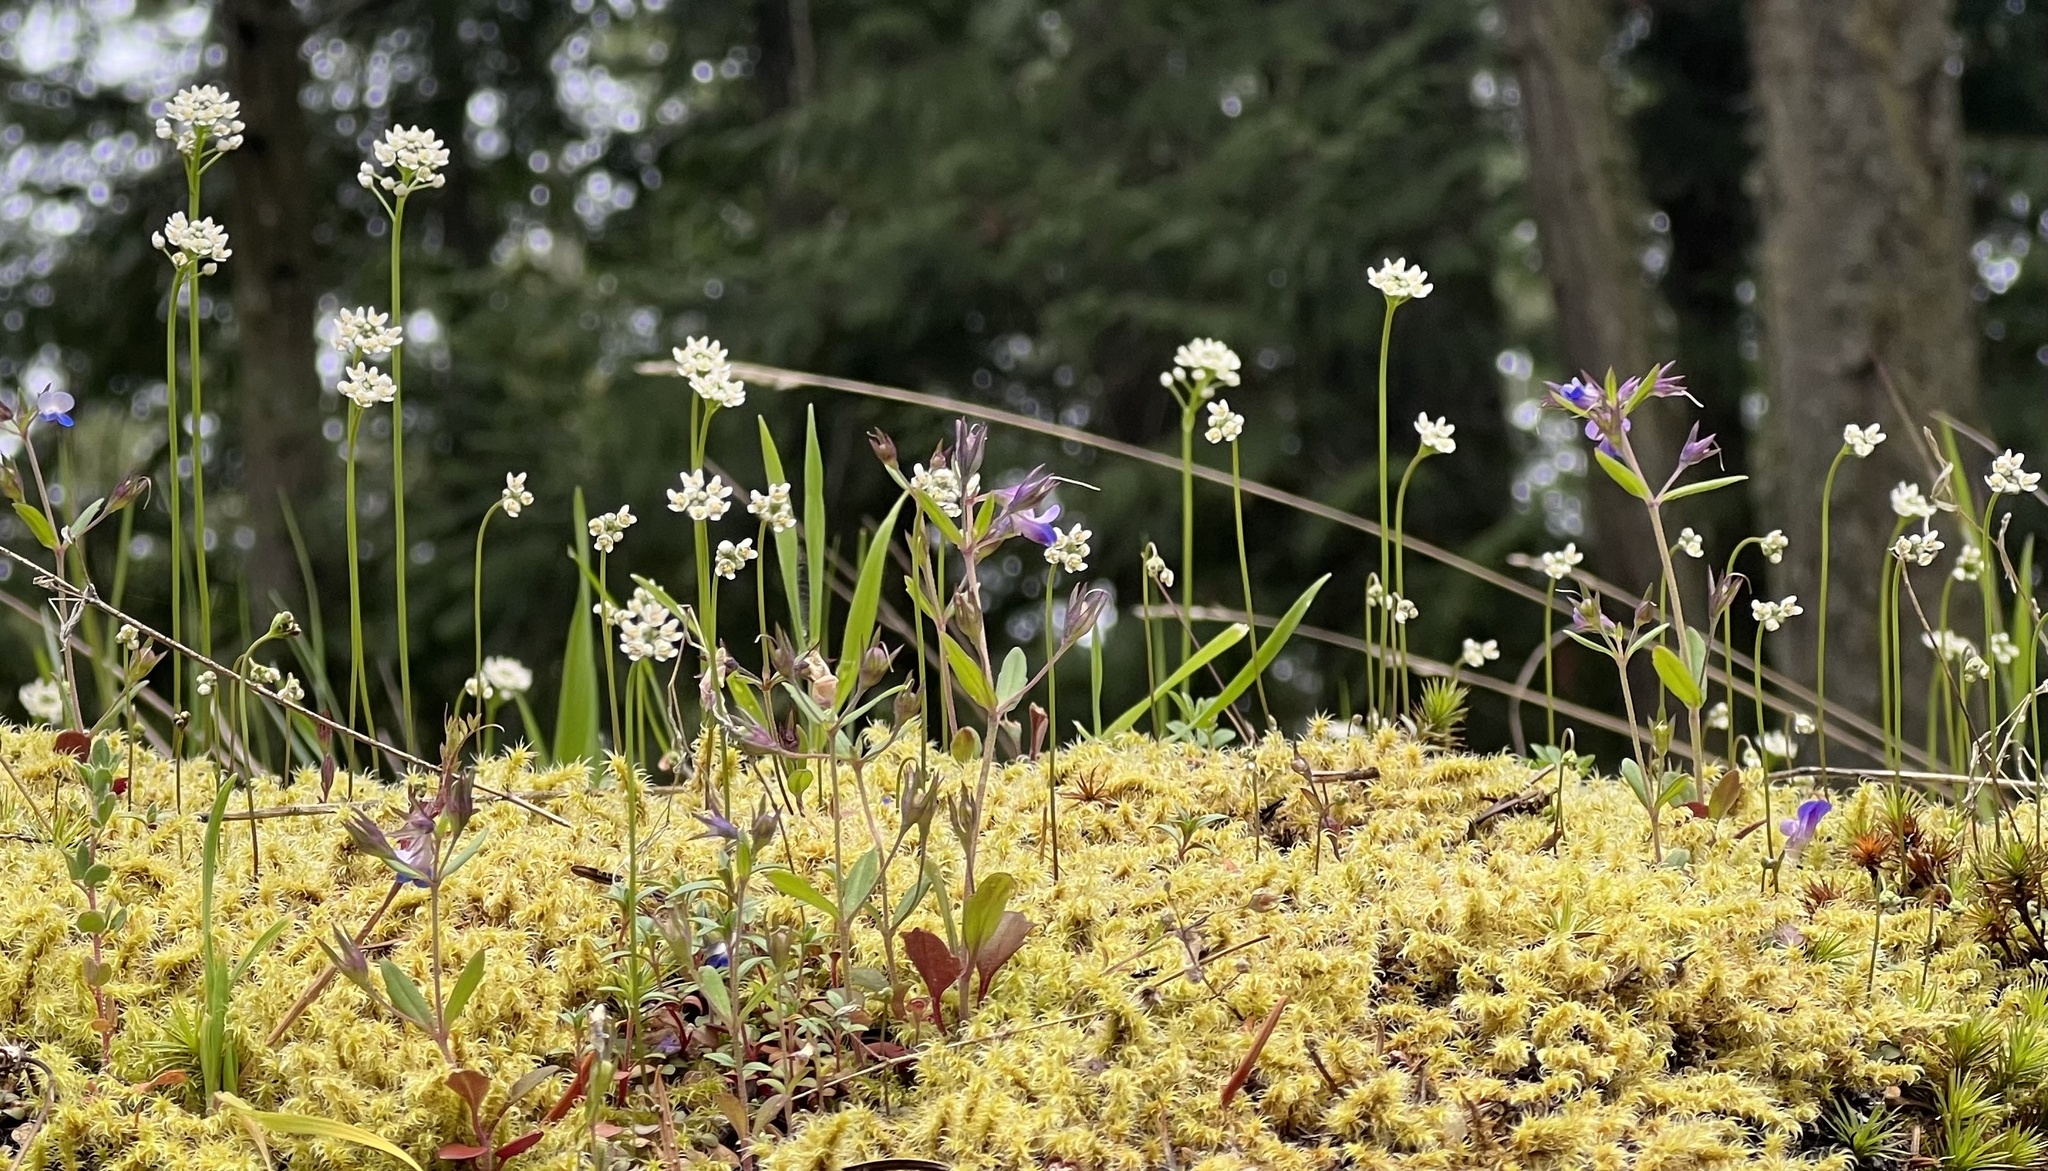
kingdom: Plantae
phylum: Tracheophyta
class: Magnoliopsida
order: Brassicales
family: Brassicaceae
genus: Teesdalia
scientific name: Teesdalia nudicaulis
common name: Shepherd's cress
